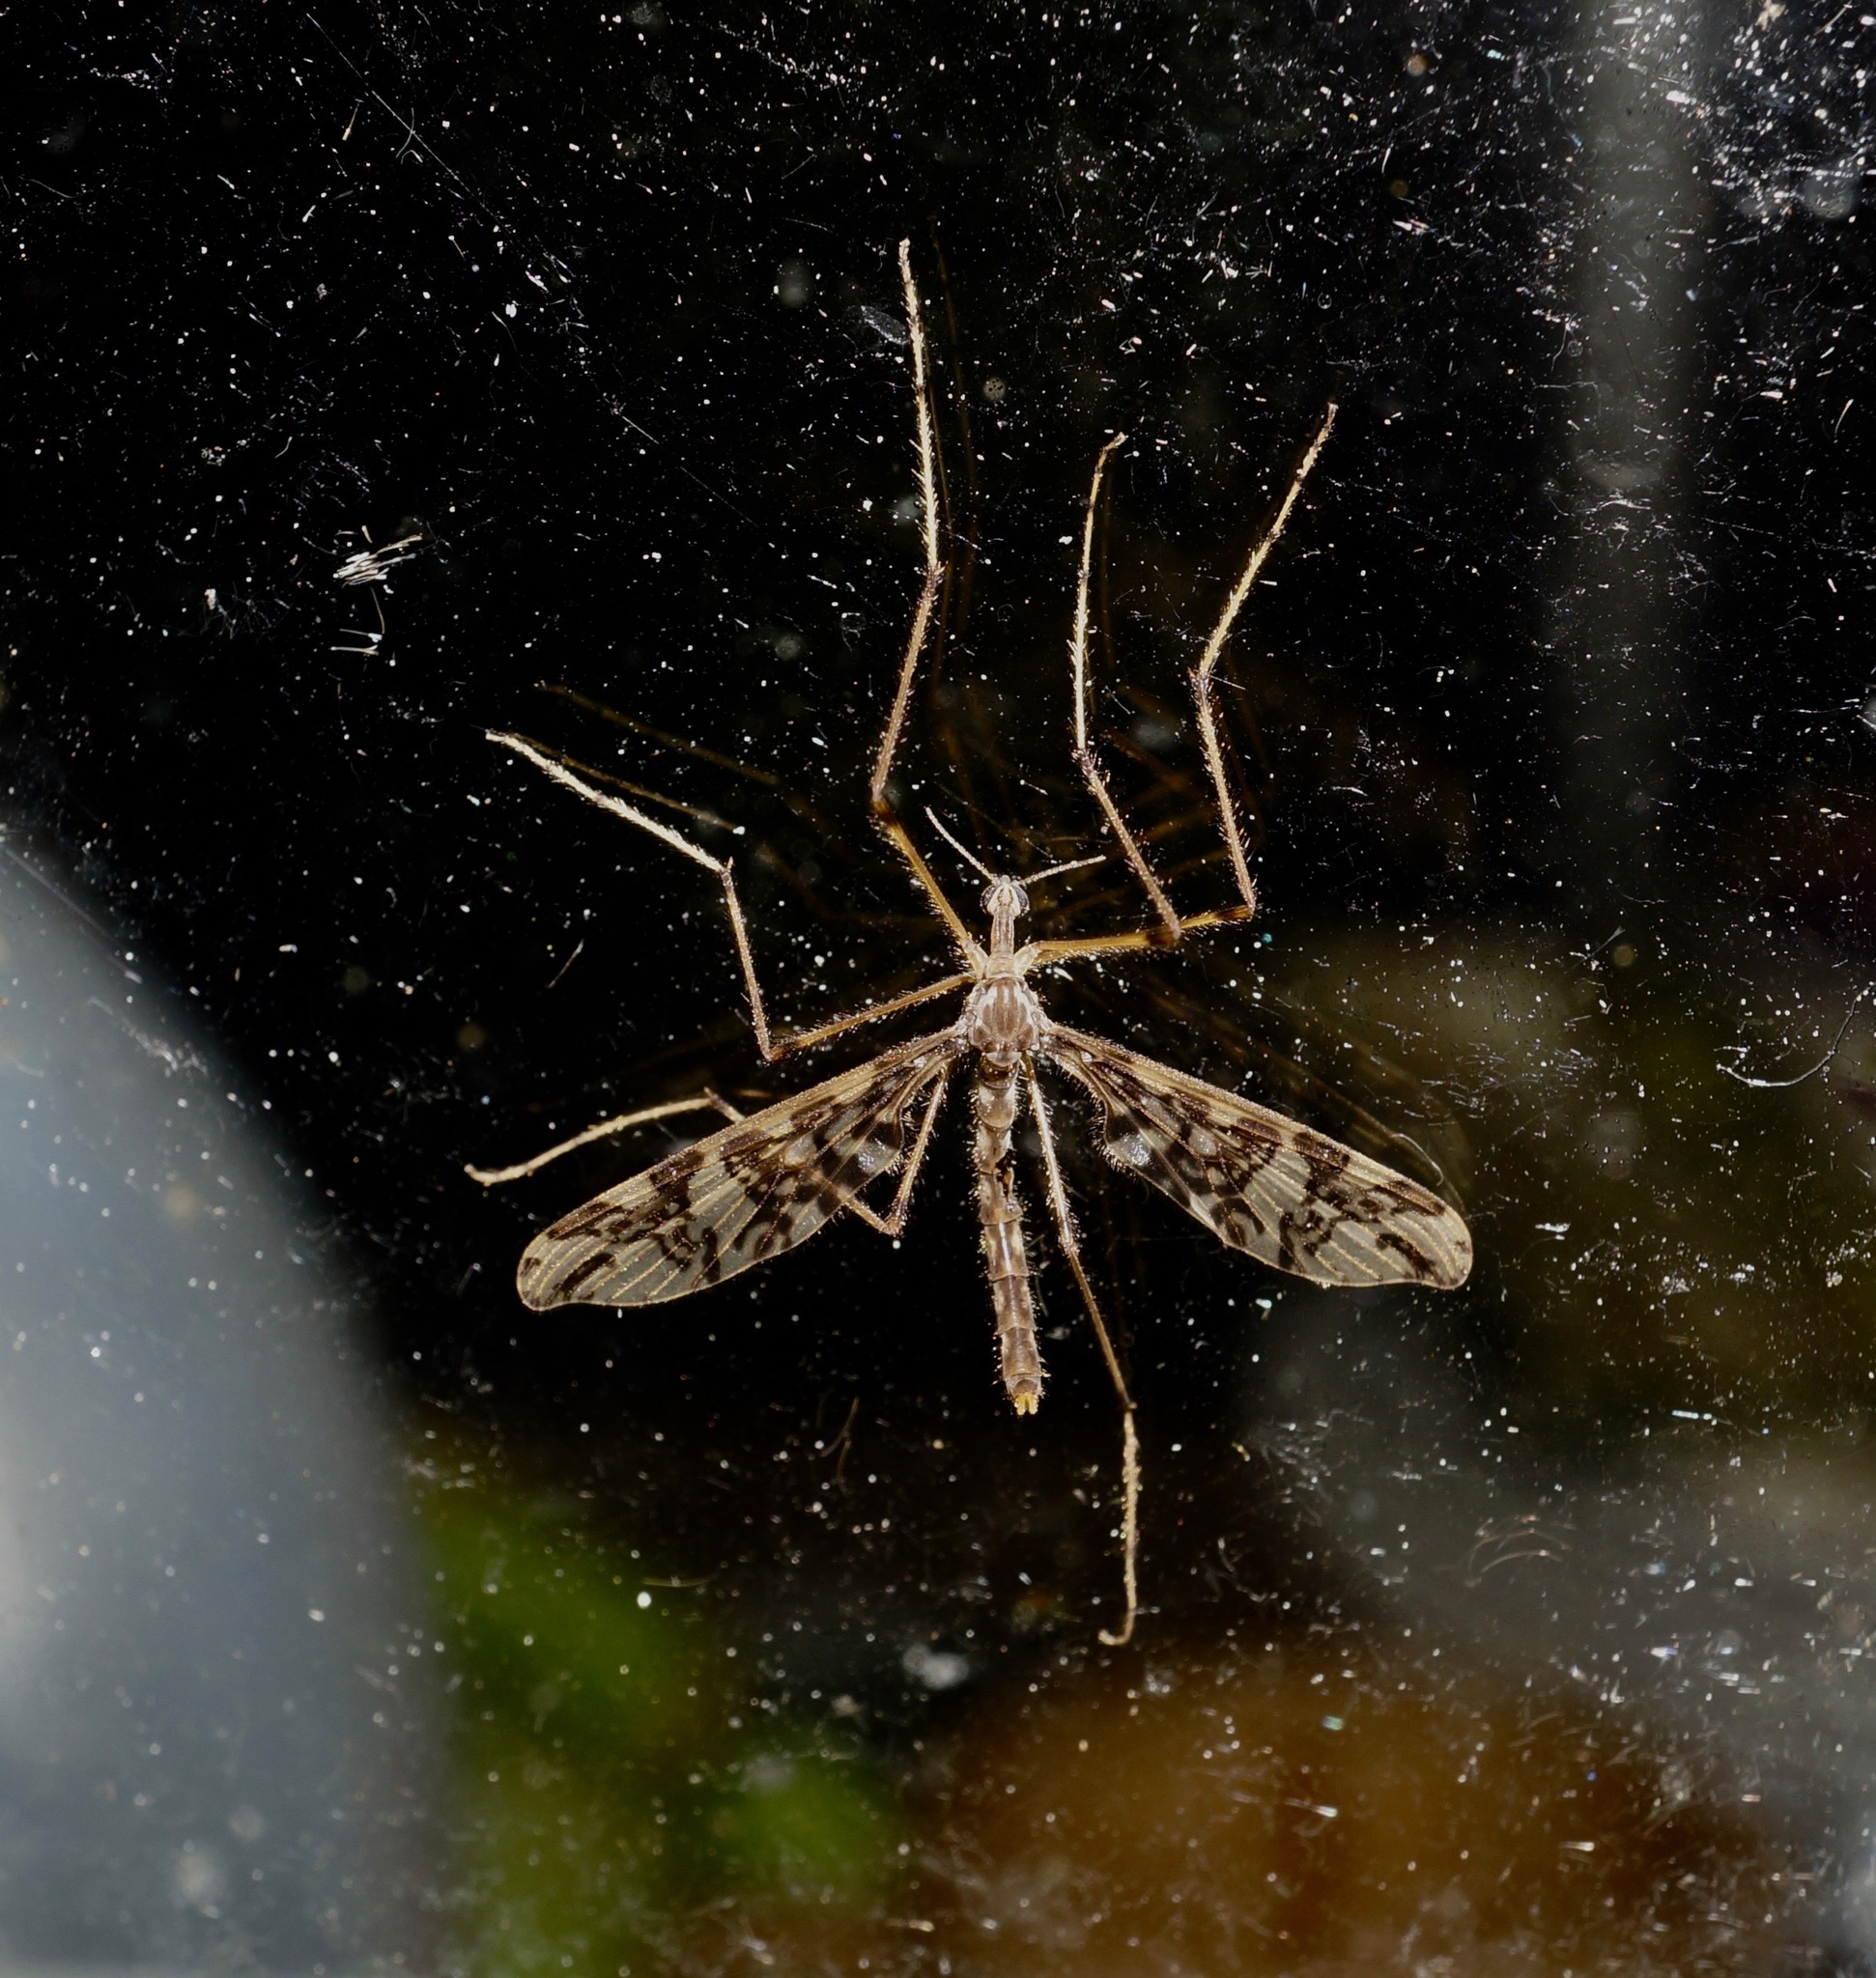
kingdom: Animalia
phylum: Arthropoda
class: Insecta
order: Diptera
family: Tanyderidae
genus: Tanyderus
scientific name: Tanyderus annuliferus
